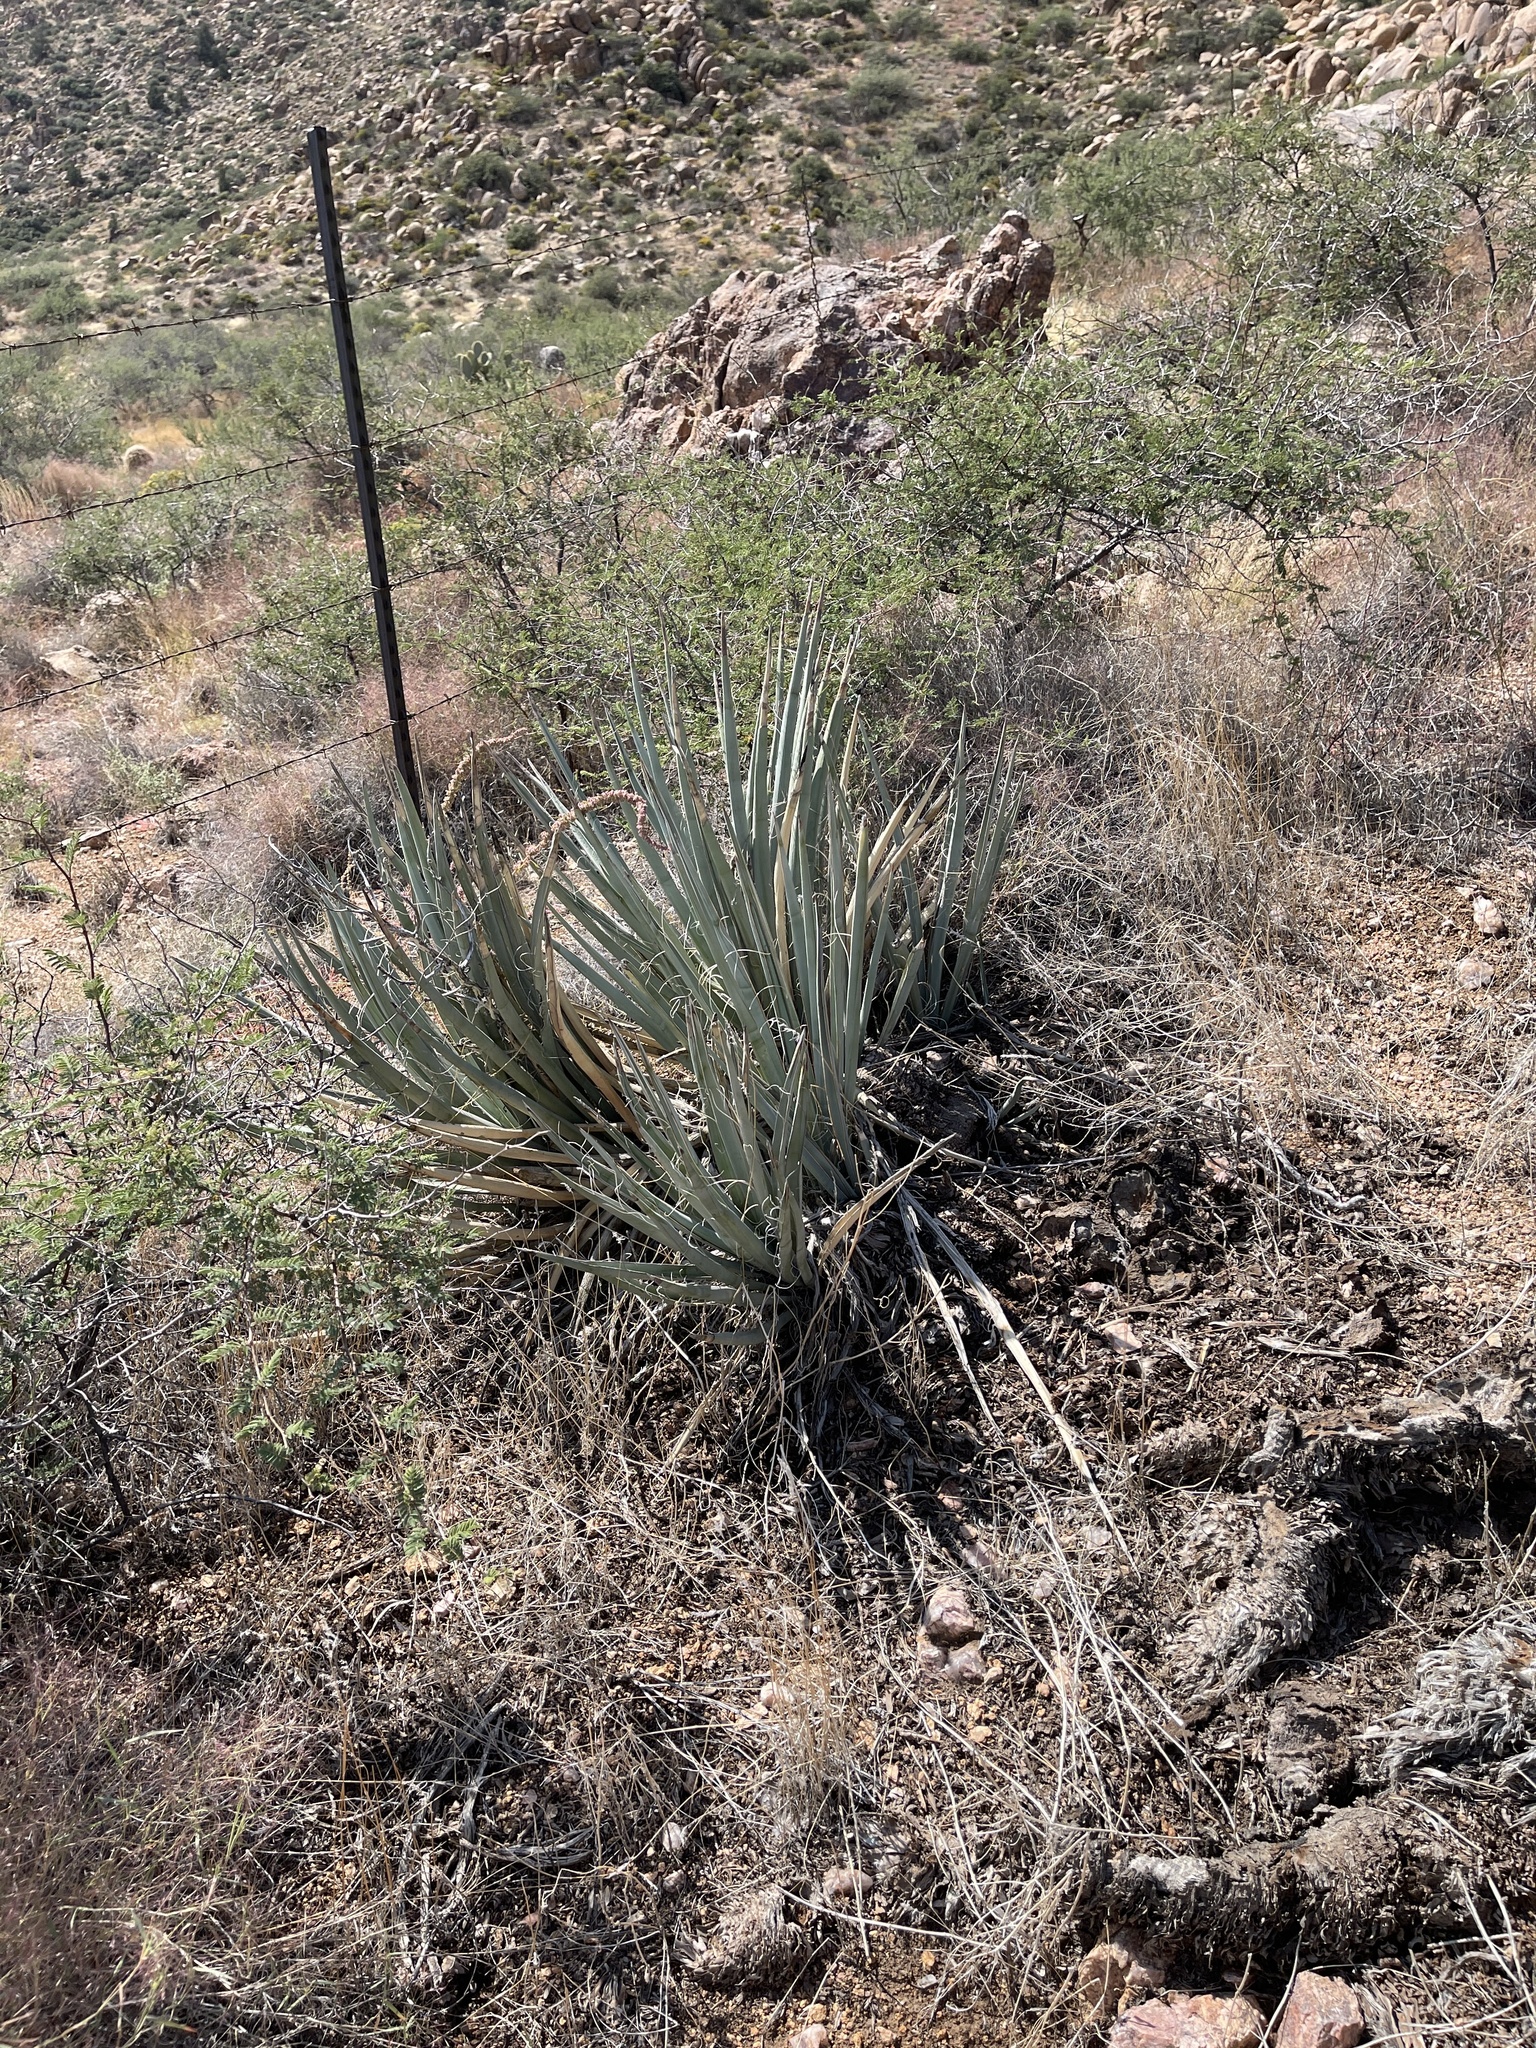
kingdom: Plantae
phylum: Tracheophyta
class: Liliopsida
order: Asparagales
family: Asparagaceae
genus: Yucca
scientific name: Yucca baccata
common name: Banana yucca
